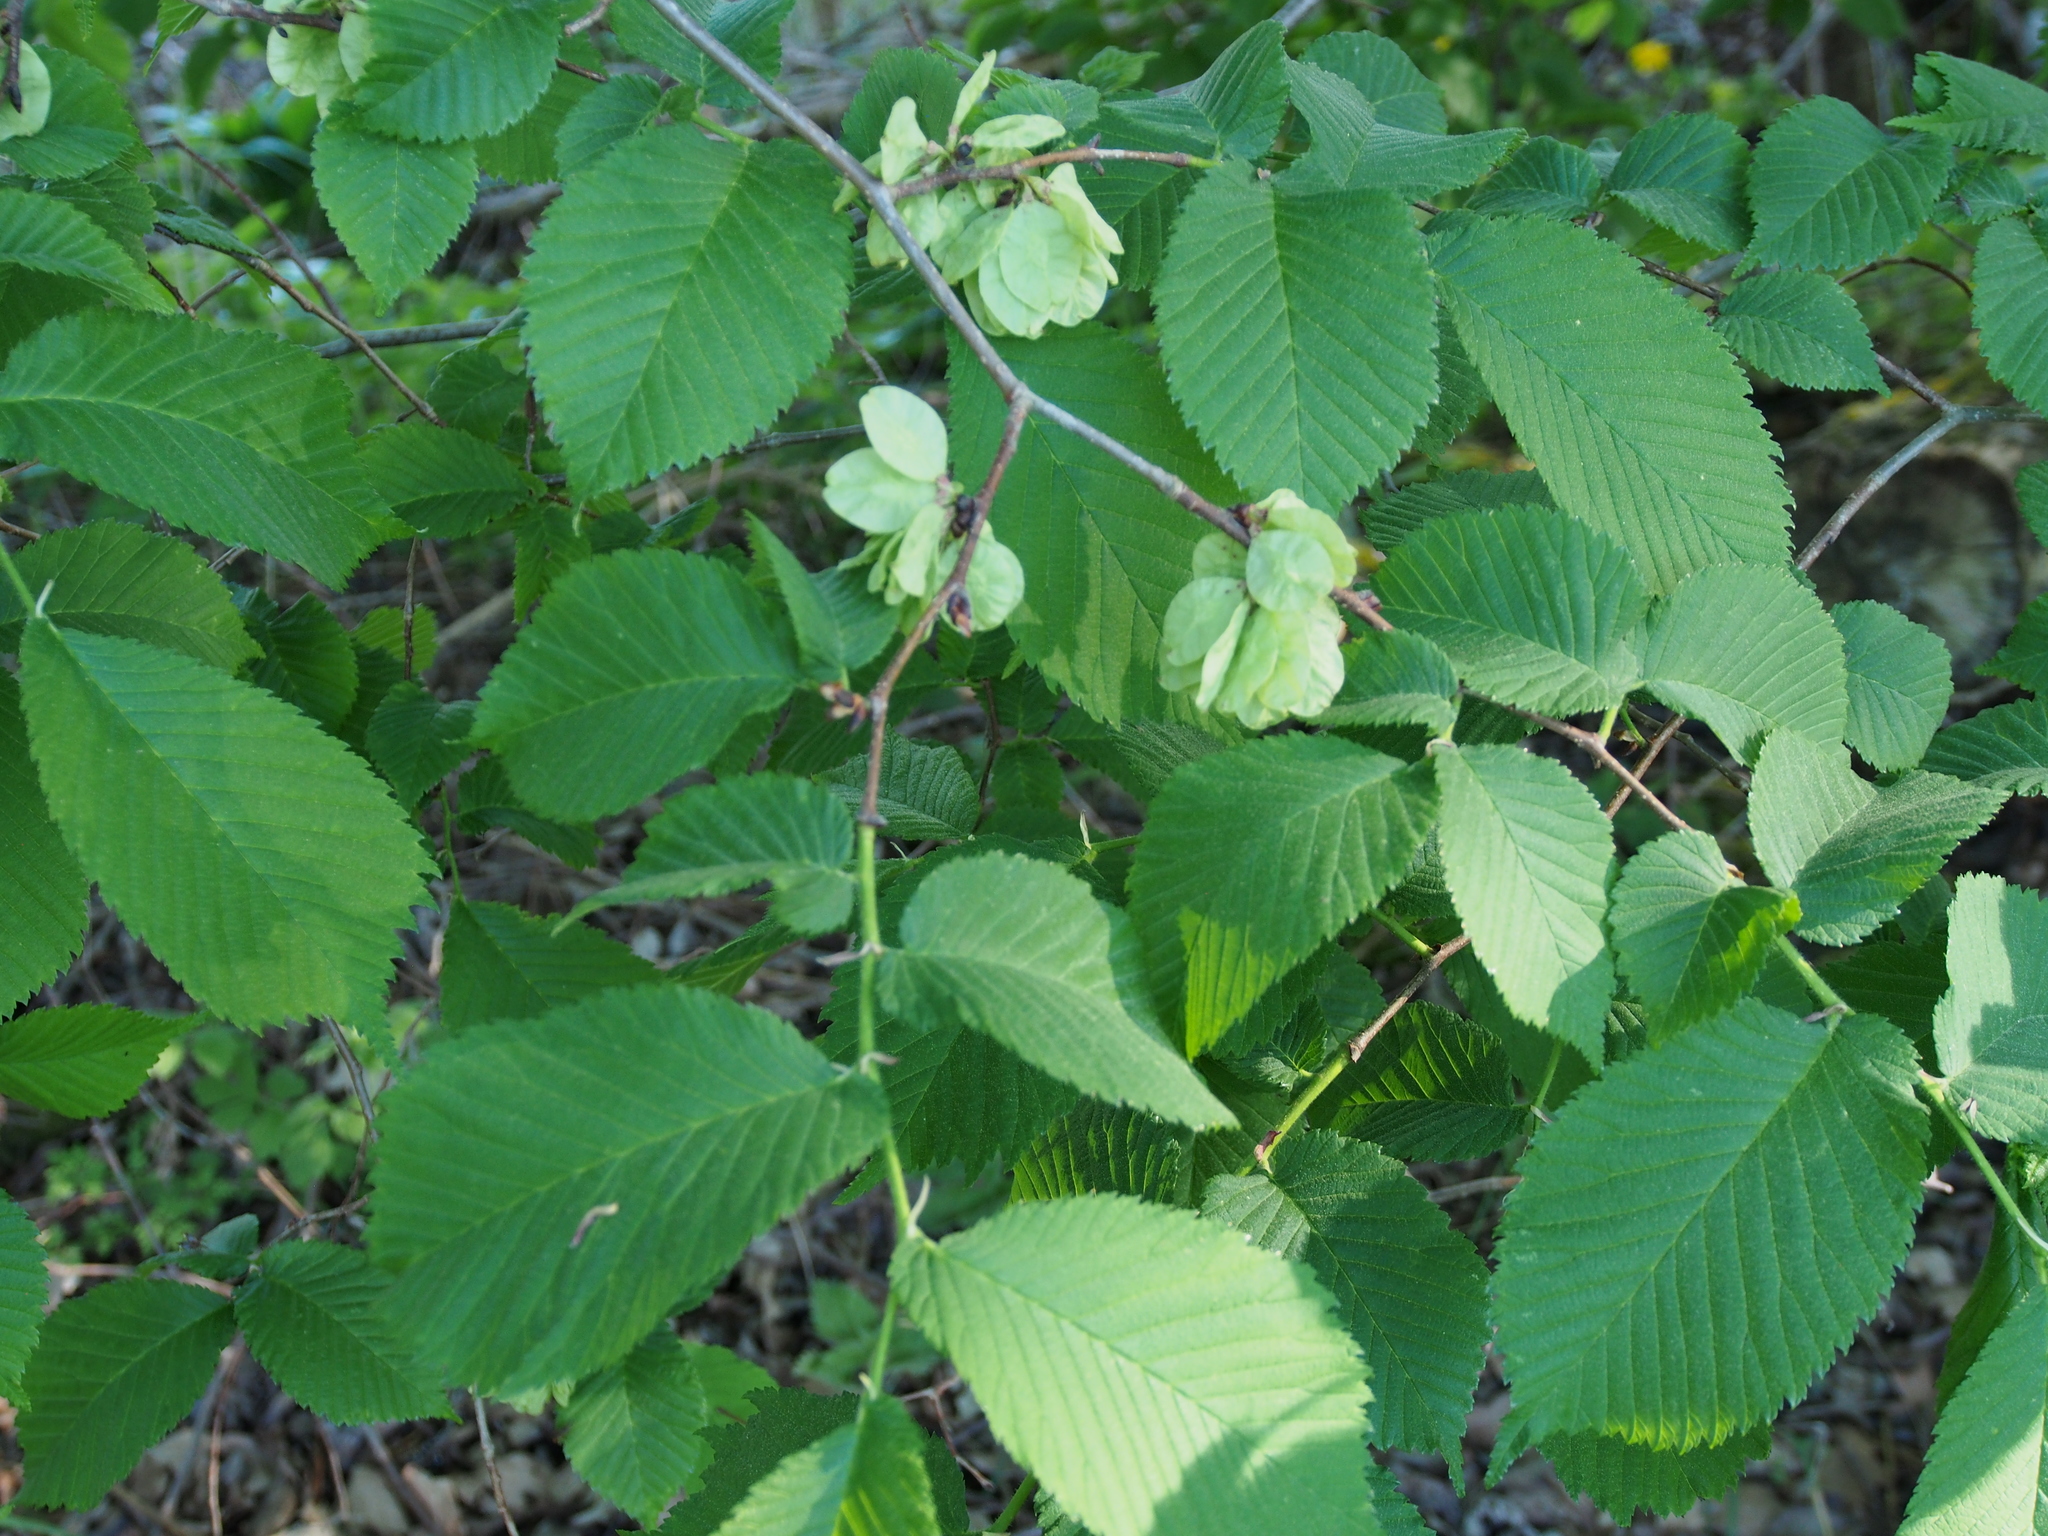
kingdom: Plantae
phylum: Tracheophyta
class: Magnoliopsida
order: Rosales
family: Ulmaceae
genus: Ulmus
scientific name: Ulmus glabra
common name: Wych elm
